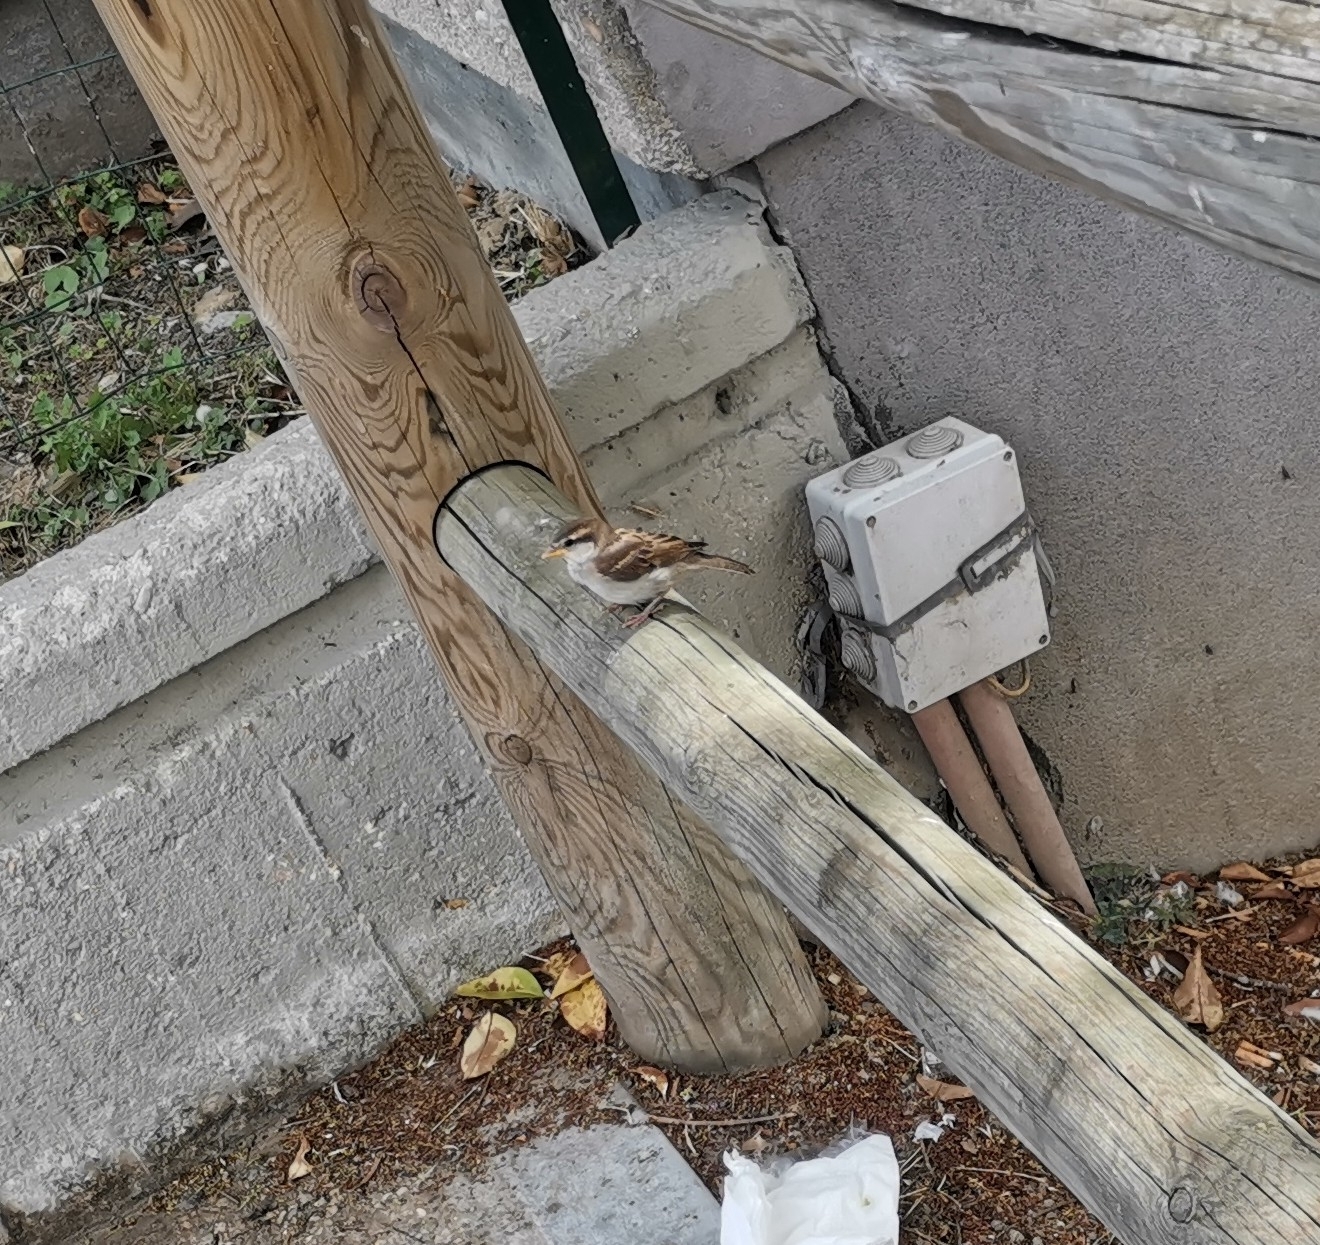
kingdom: Animalia
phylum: Chordata
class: Aves
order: Passeriformes
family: Passeridae
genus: Passer
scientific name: Passer italiae
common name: Italian sparrow
